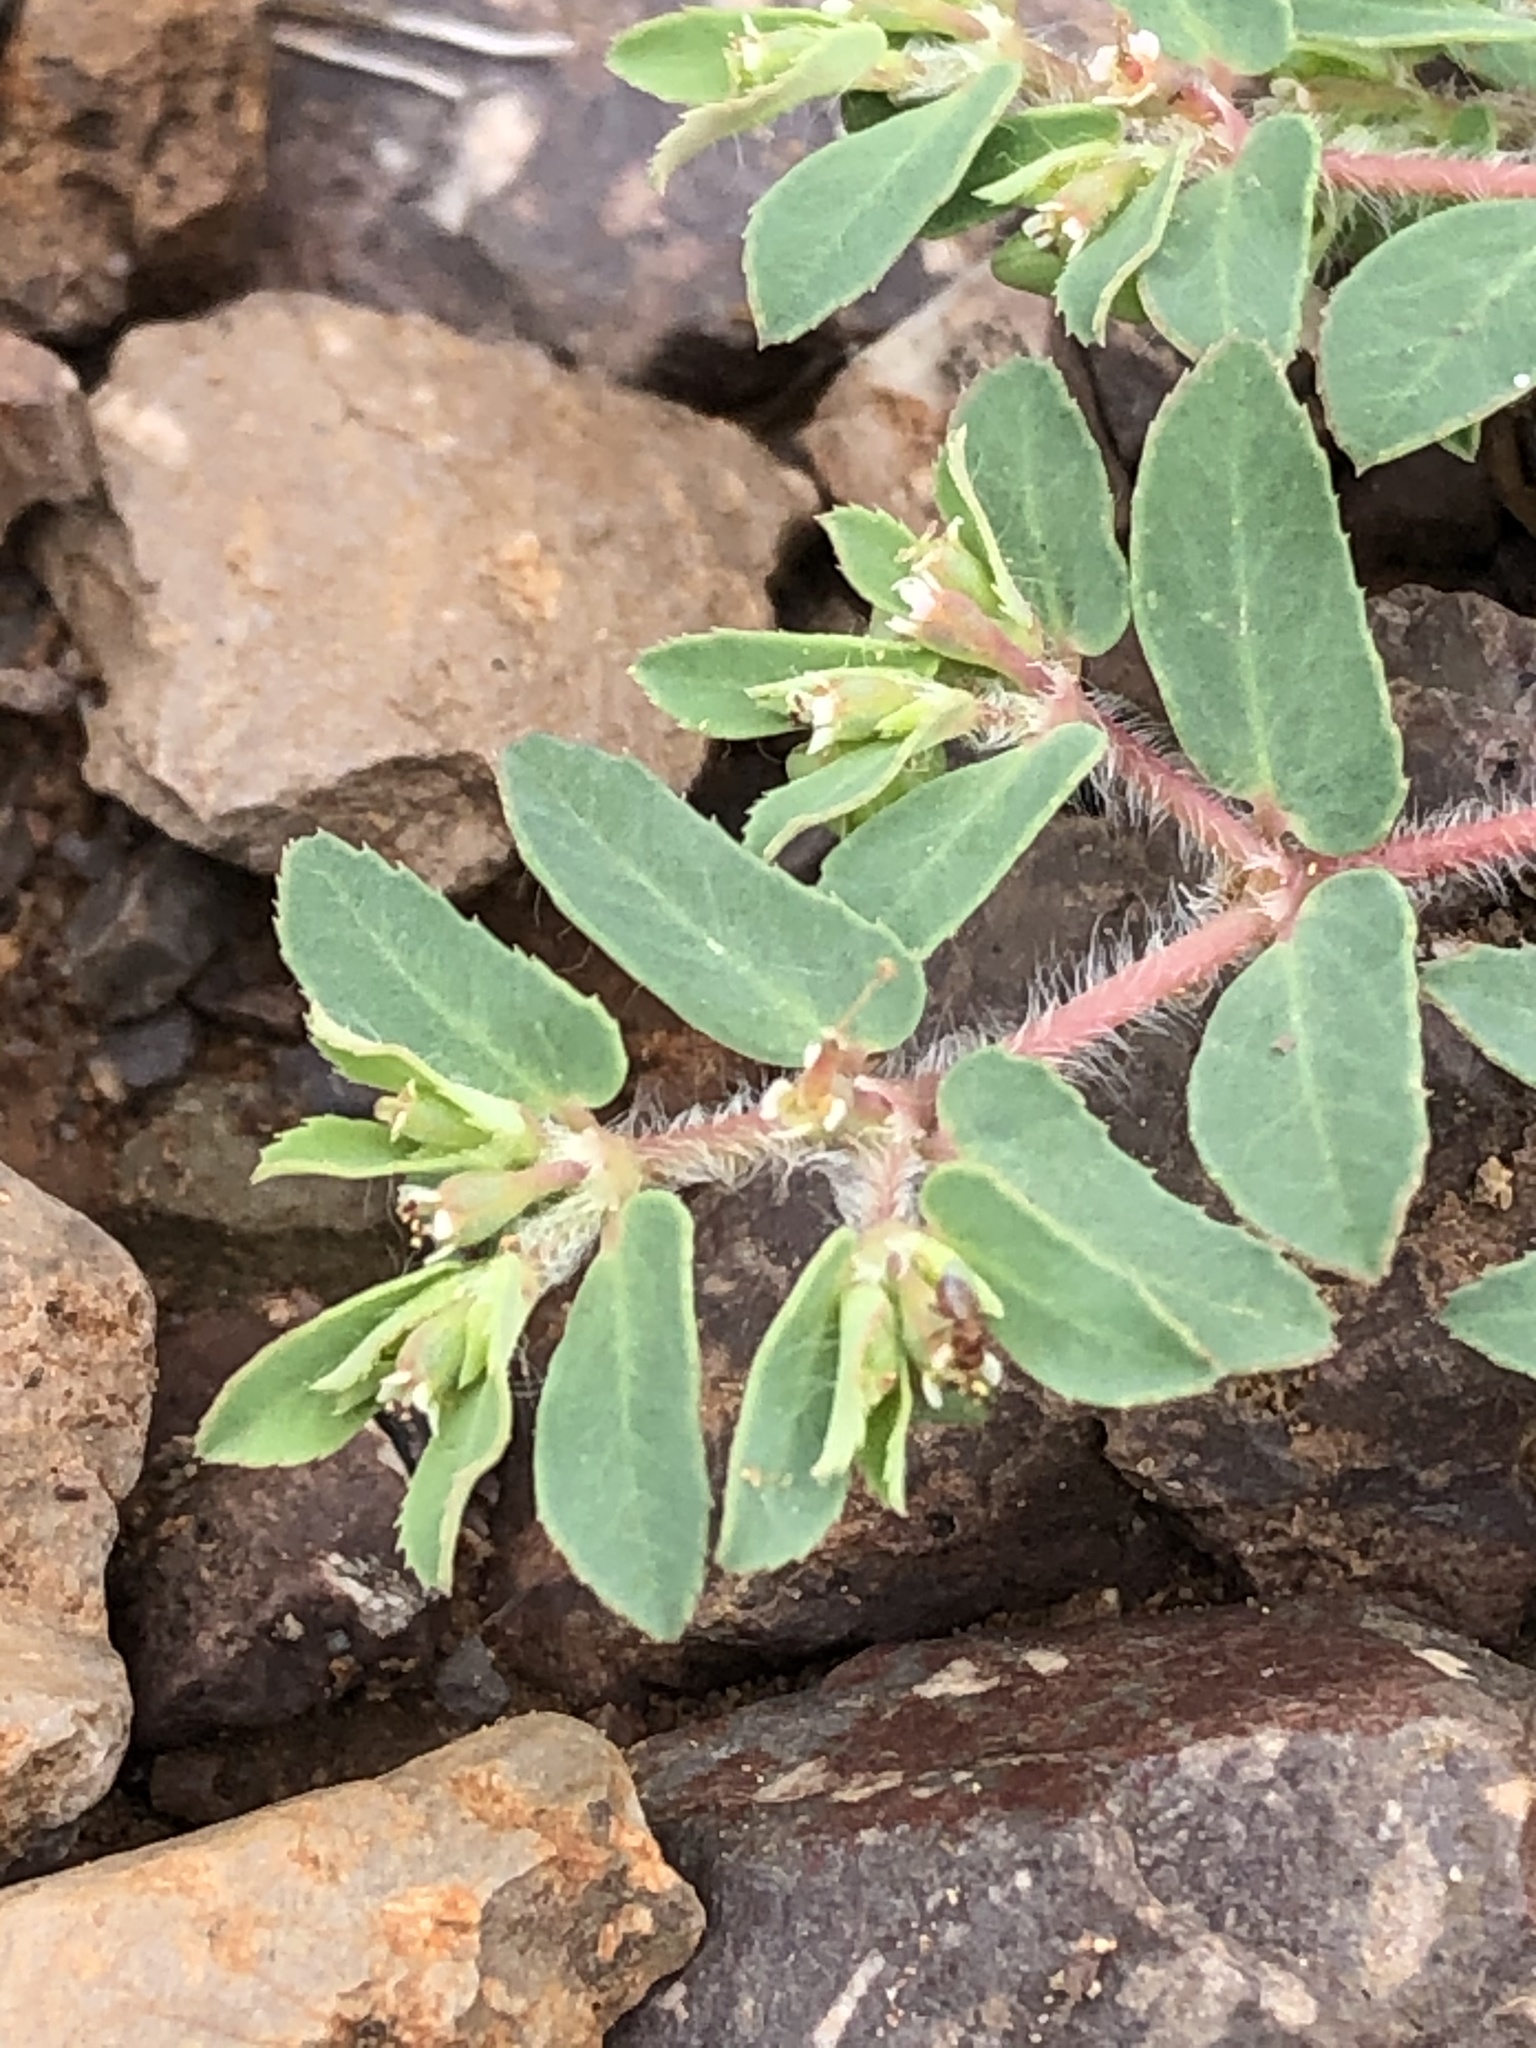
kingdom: Plantae
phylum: Tracheophyta
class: Magnoliopsida
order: Malpighiales
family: Euphorbiaceae
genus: Euphorbia
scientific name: Euphorbia serrula
